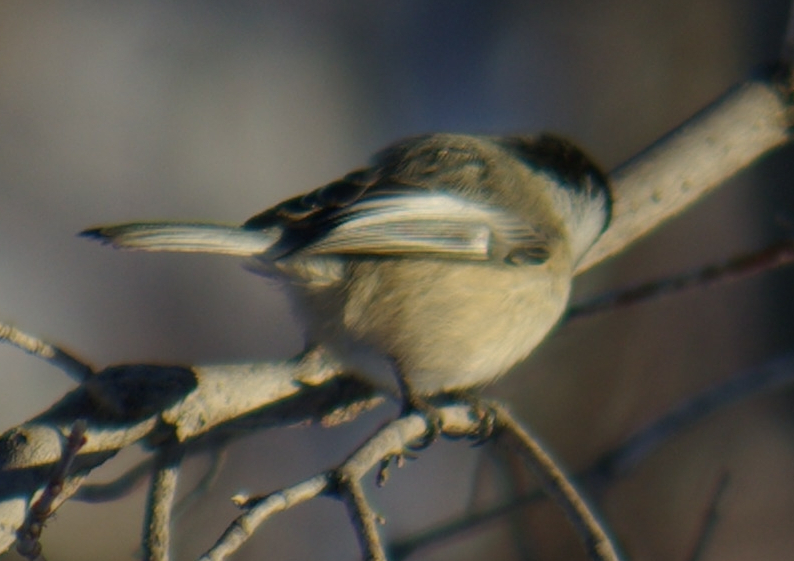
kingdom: Animalia
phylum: Chordata
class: Aves
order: Passeriformes
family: Paridae
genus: Poecile
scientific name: Poecile atricapillus
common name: Black-capped chickadee
